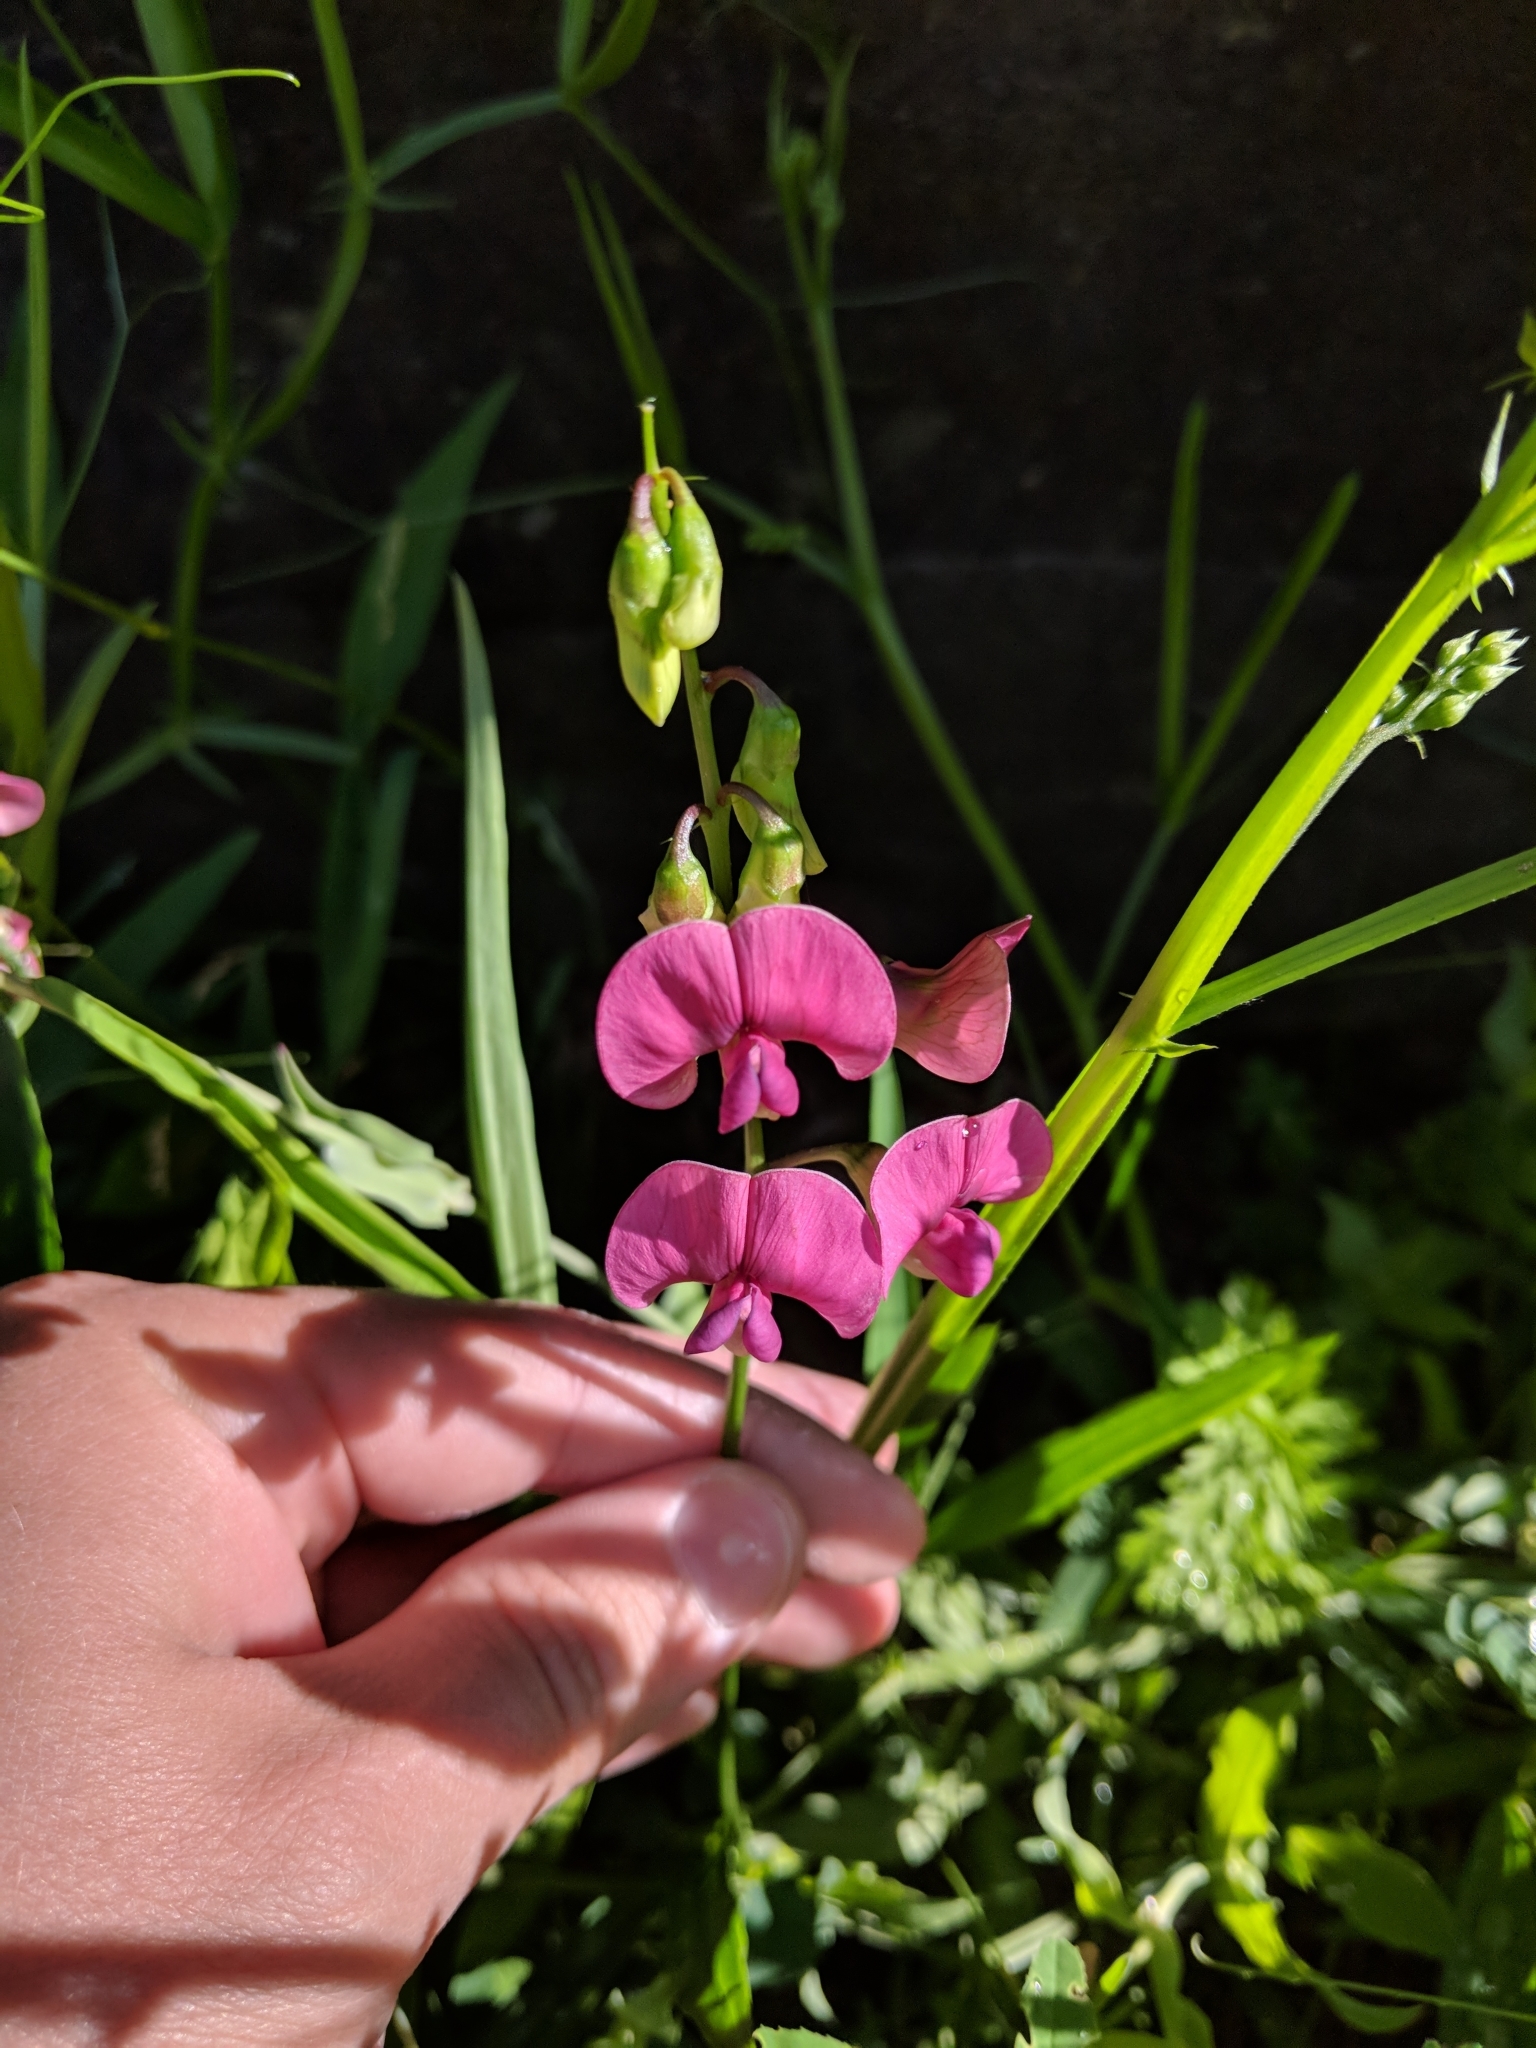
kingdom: Plantae
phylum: Tracheophyta
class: Magnoliopsida
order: Fabales
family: Fabaceae
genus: Lathyrus
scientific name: Lathyrus sylvestris
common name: Flat pea
